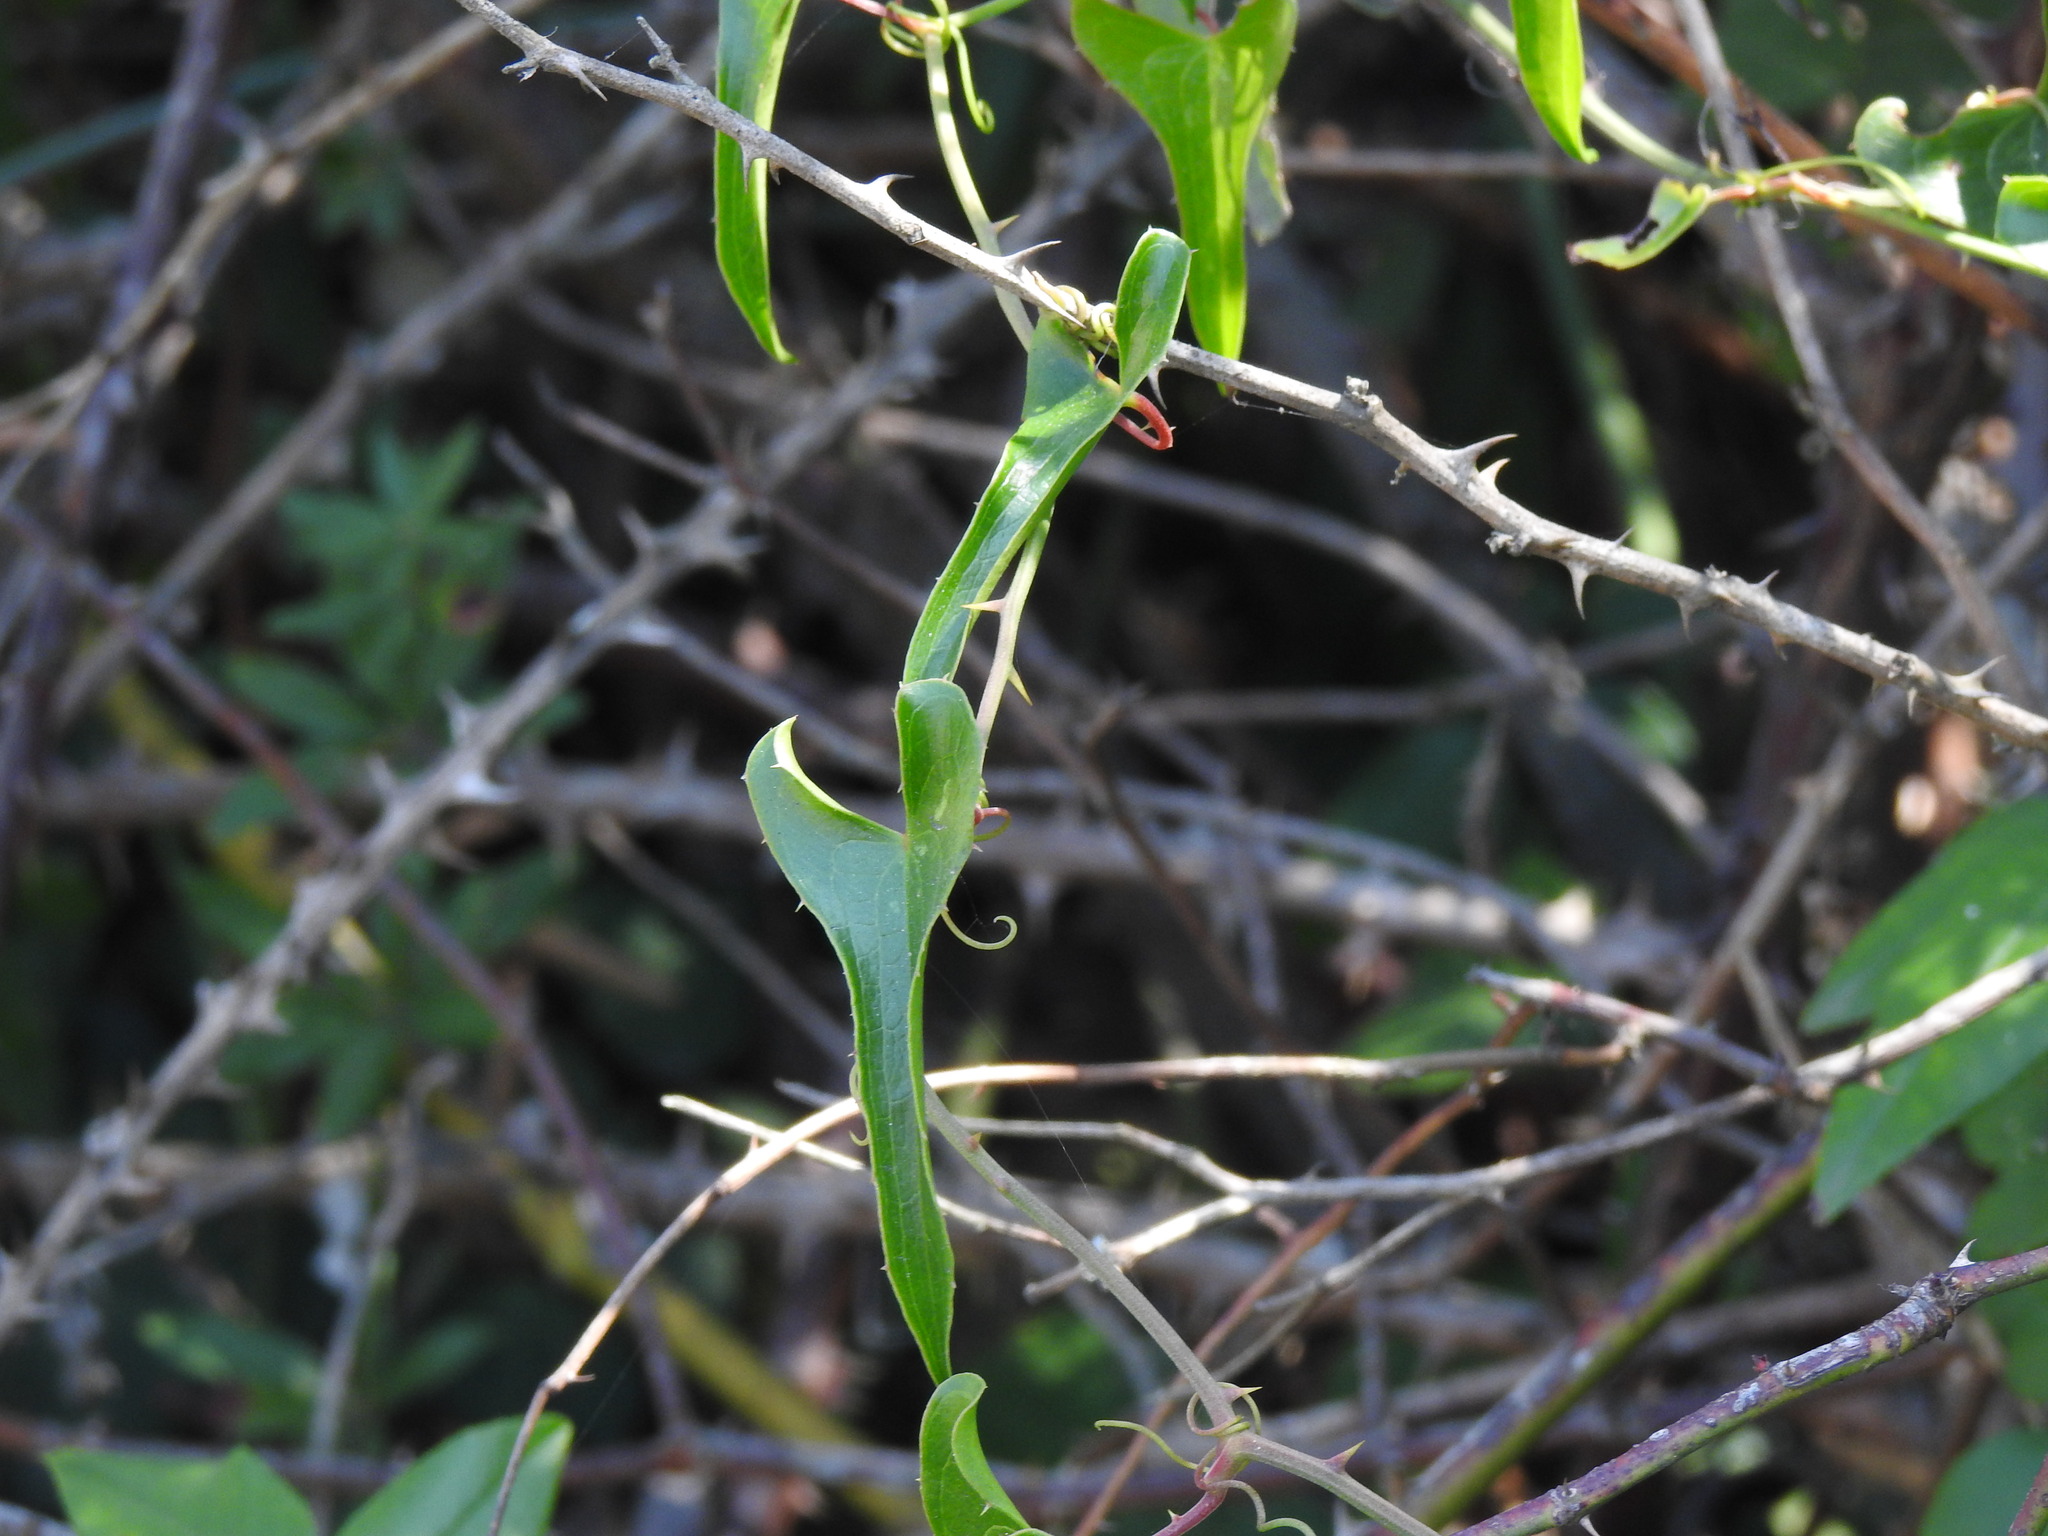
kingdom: Plantae
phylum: Tracheophyta
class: Liliopsida
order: Liliales
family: Smilacaceae
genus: Smilax
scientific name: Smilax aspera
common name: Common smilax
